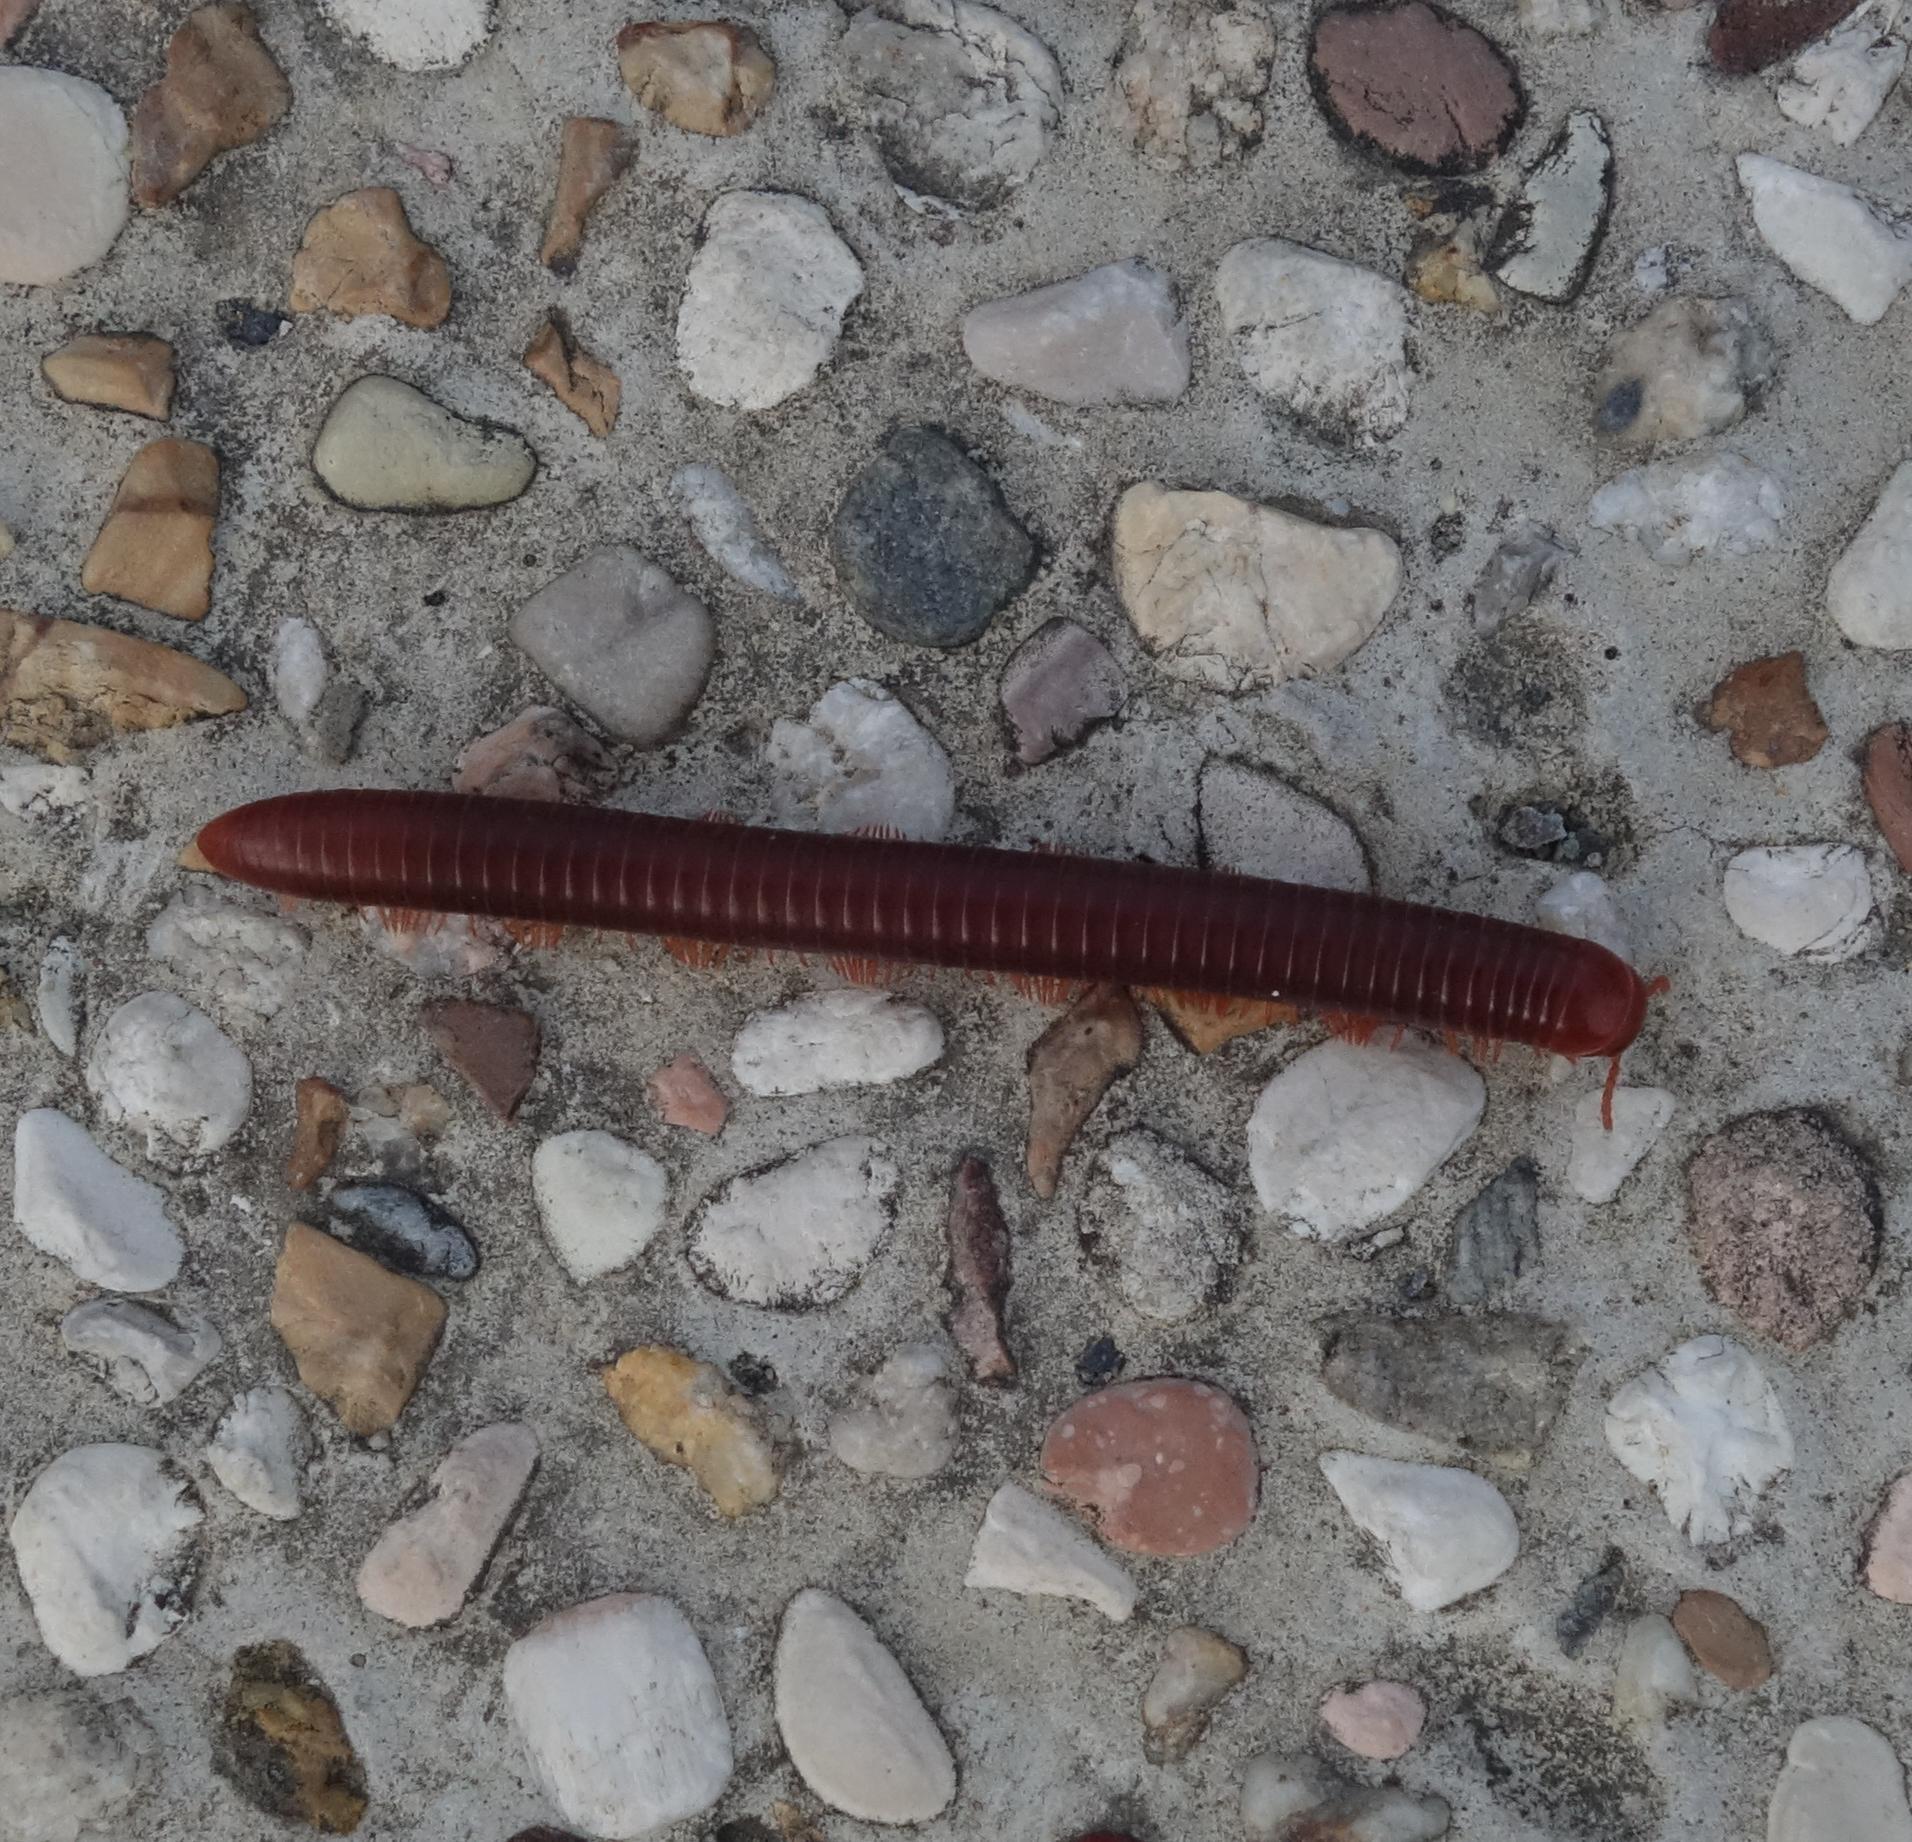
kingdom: Animalia
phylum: Arthropoda
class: Diplopoda
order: Spirobolida
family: Pachybolidae
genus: Trigoniulus
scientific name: Trigoniulus corallinus
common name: Millipede
